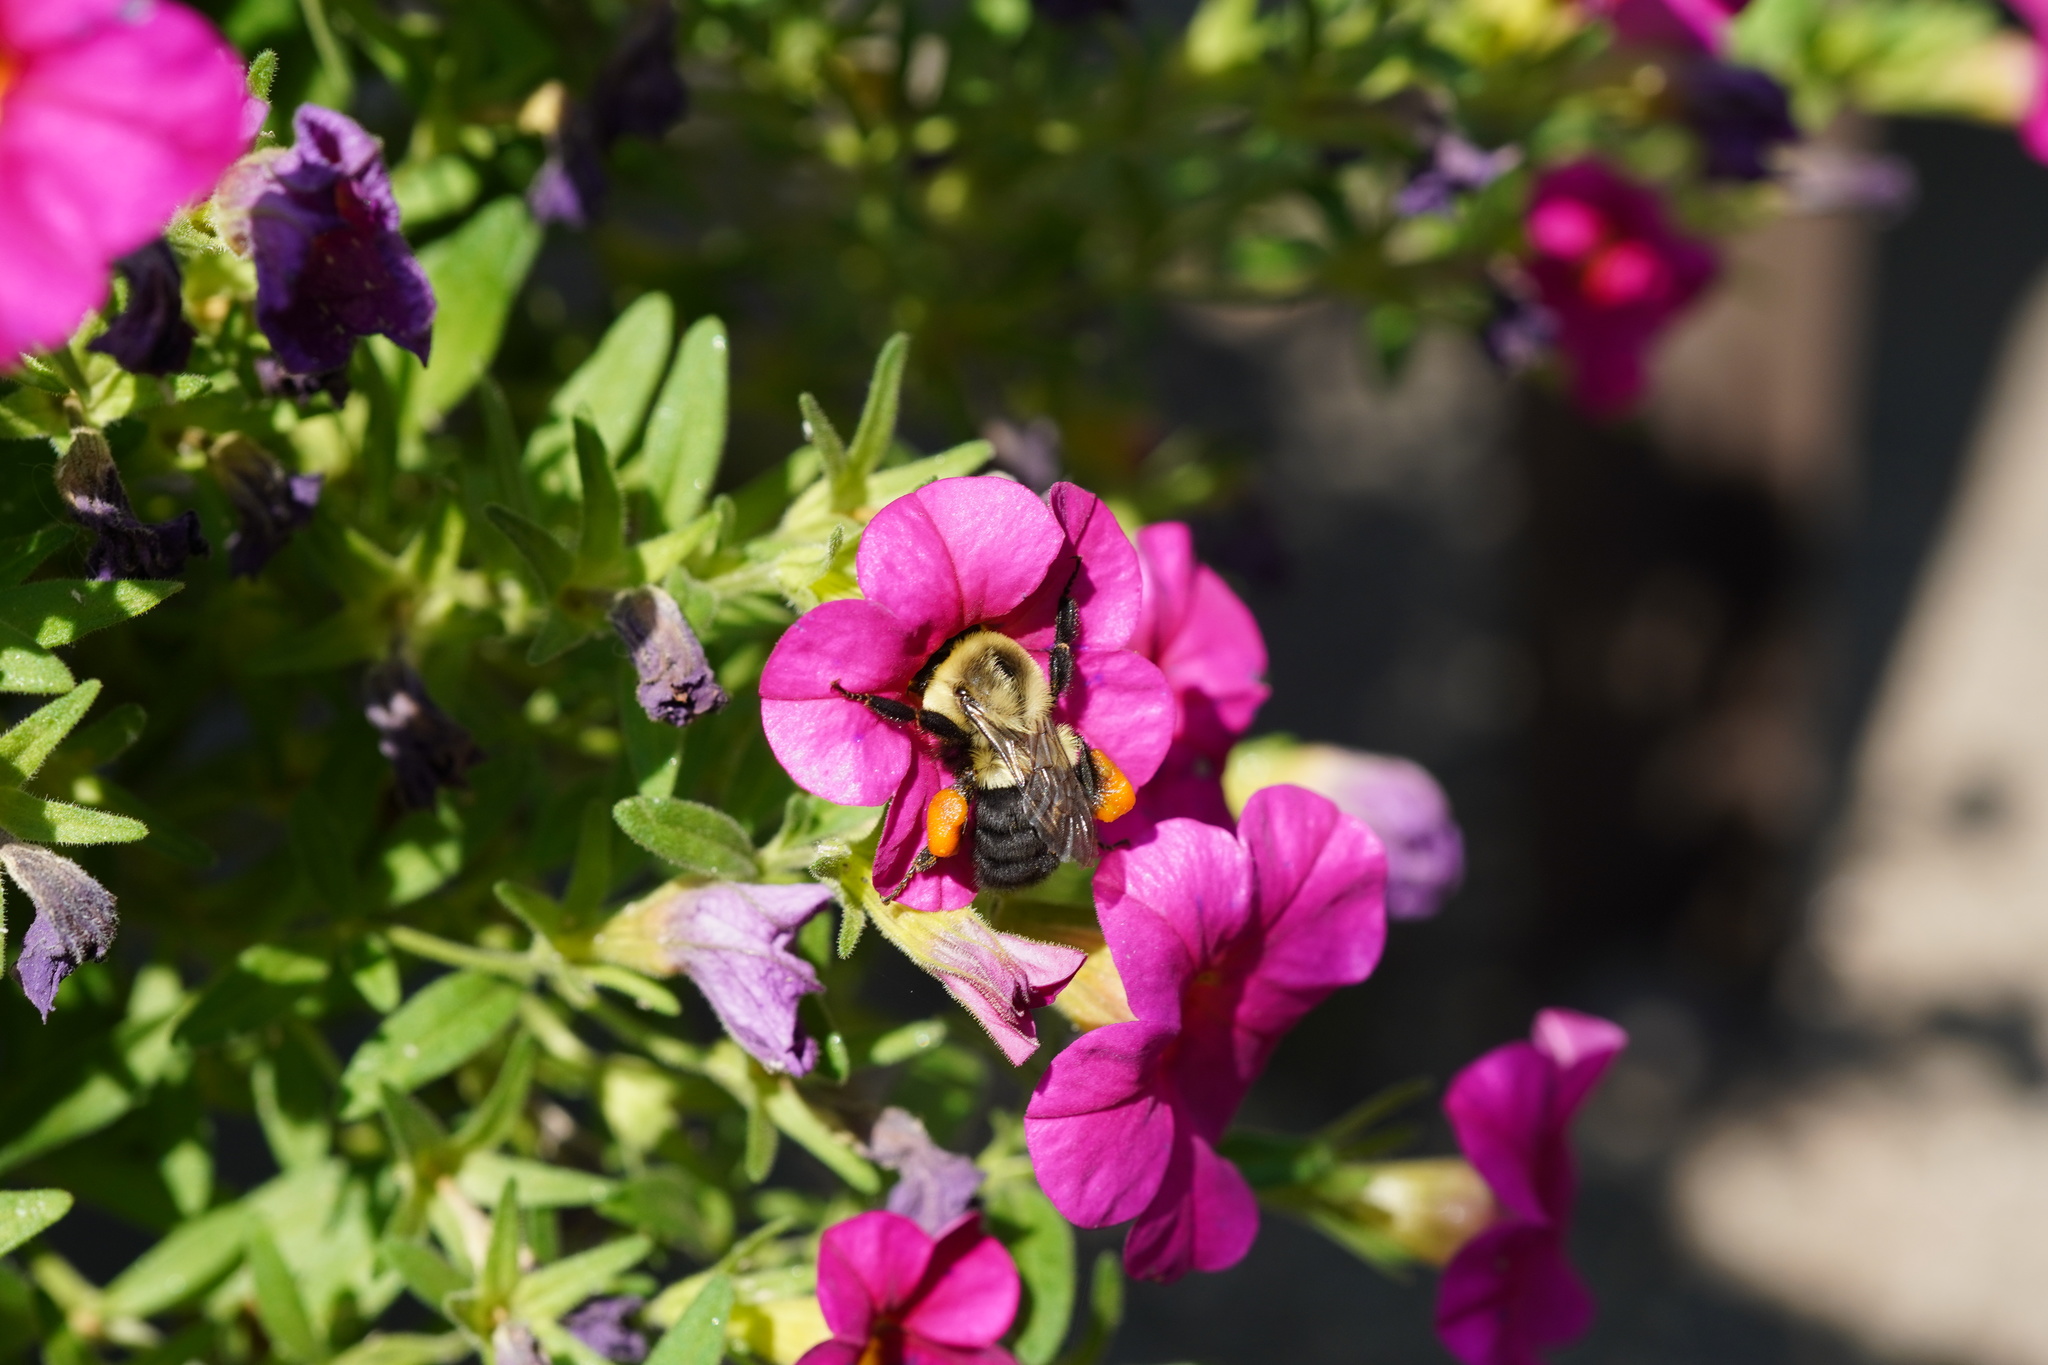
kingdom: Animalia
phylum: Arthropoda
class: Insecta
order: Hymenoptera
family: Apidae
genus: Bombus
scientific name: Bombus impatiens
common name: Common eastern bumble bee
